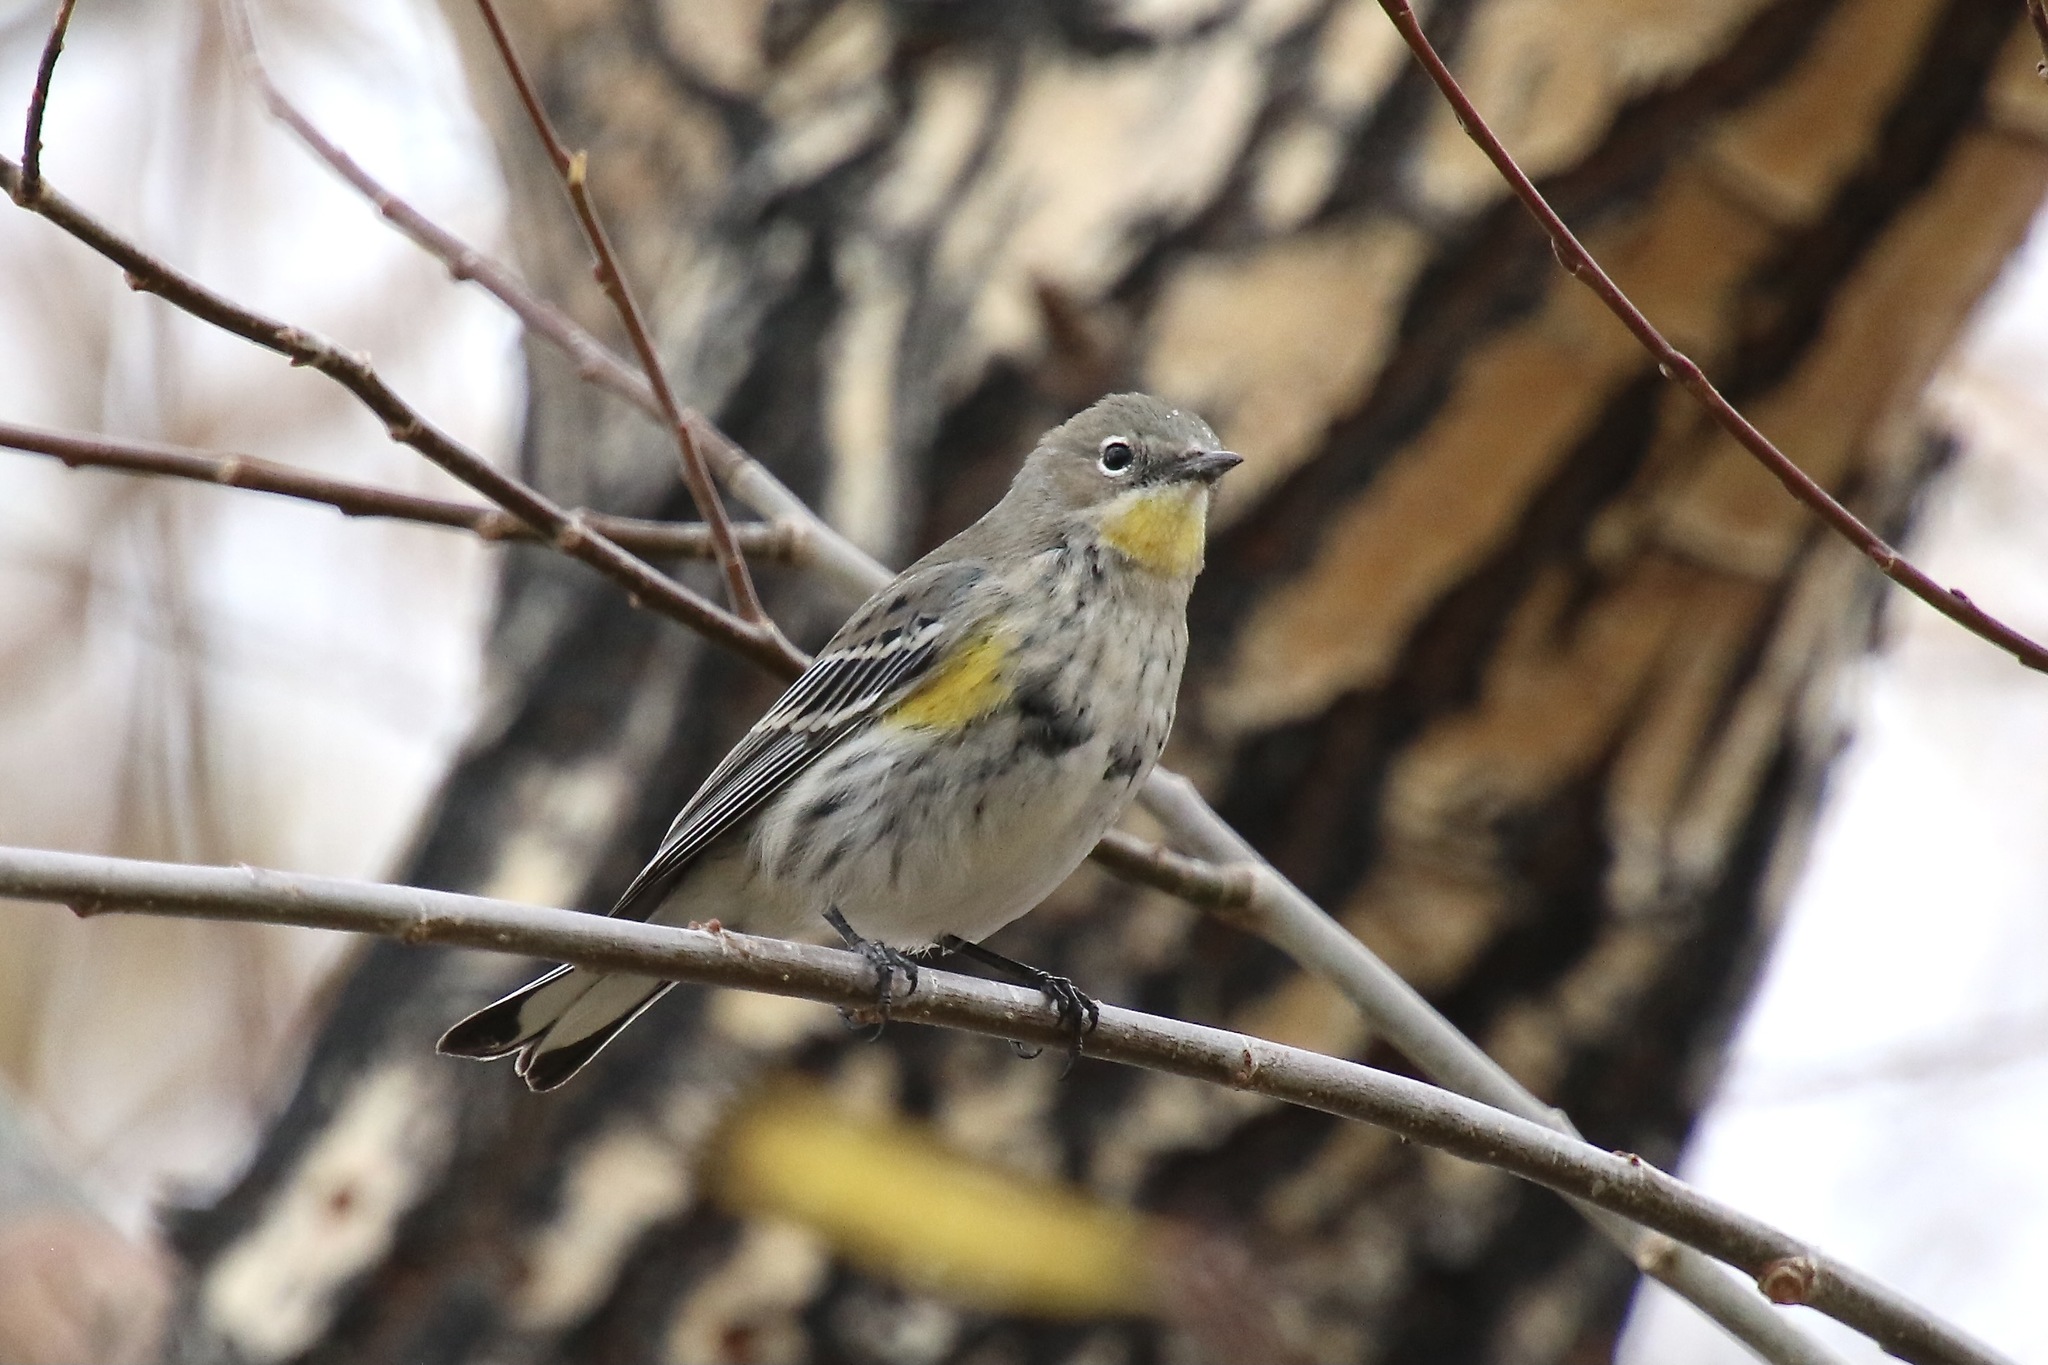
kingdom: Animalia
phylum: Chordata
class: Aves
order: Passeriformes
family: Parulidae
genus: Setophaga
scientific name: Setophaga auduboni
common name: Audubon's warbler
